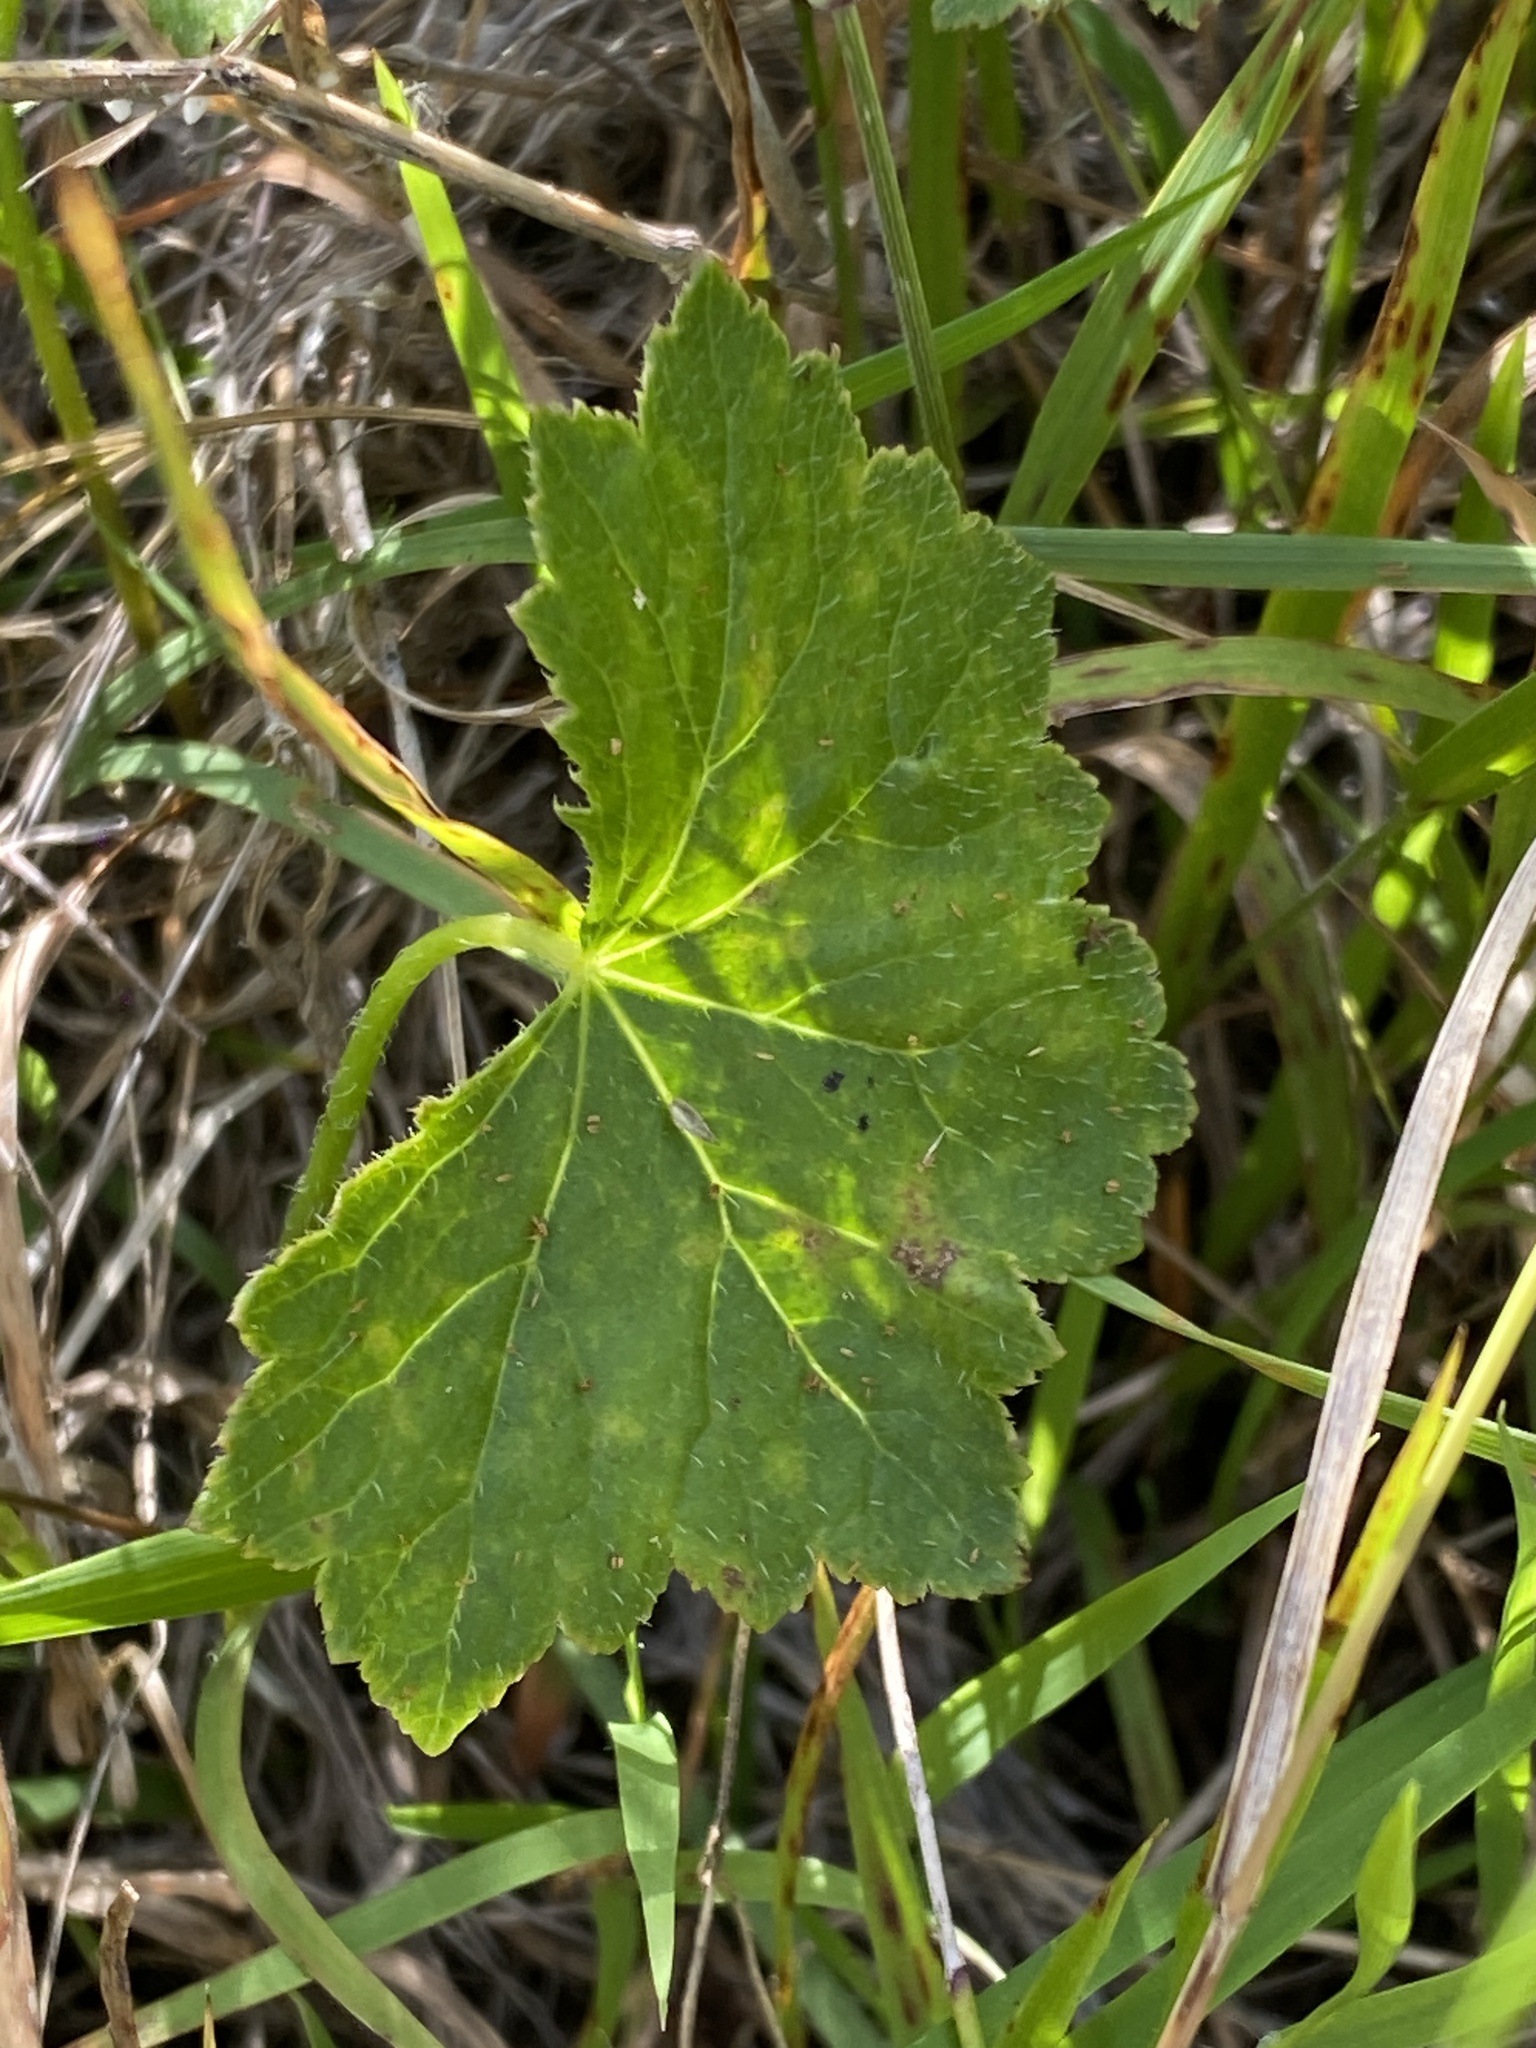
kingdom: Plantae
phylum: Tracheophyta
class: Magnoliopsida
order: Apiales
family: Araliaceae
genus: Hydrocotyle
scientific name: Hydrocotyle laxiflora
